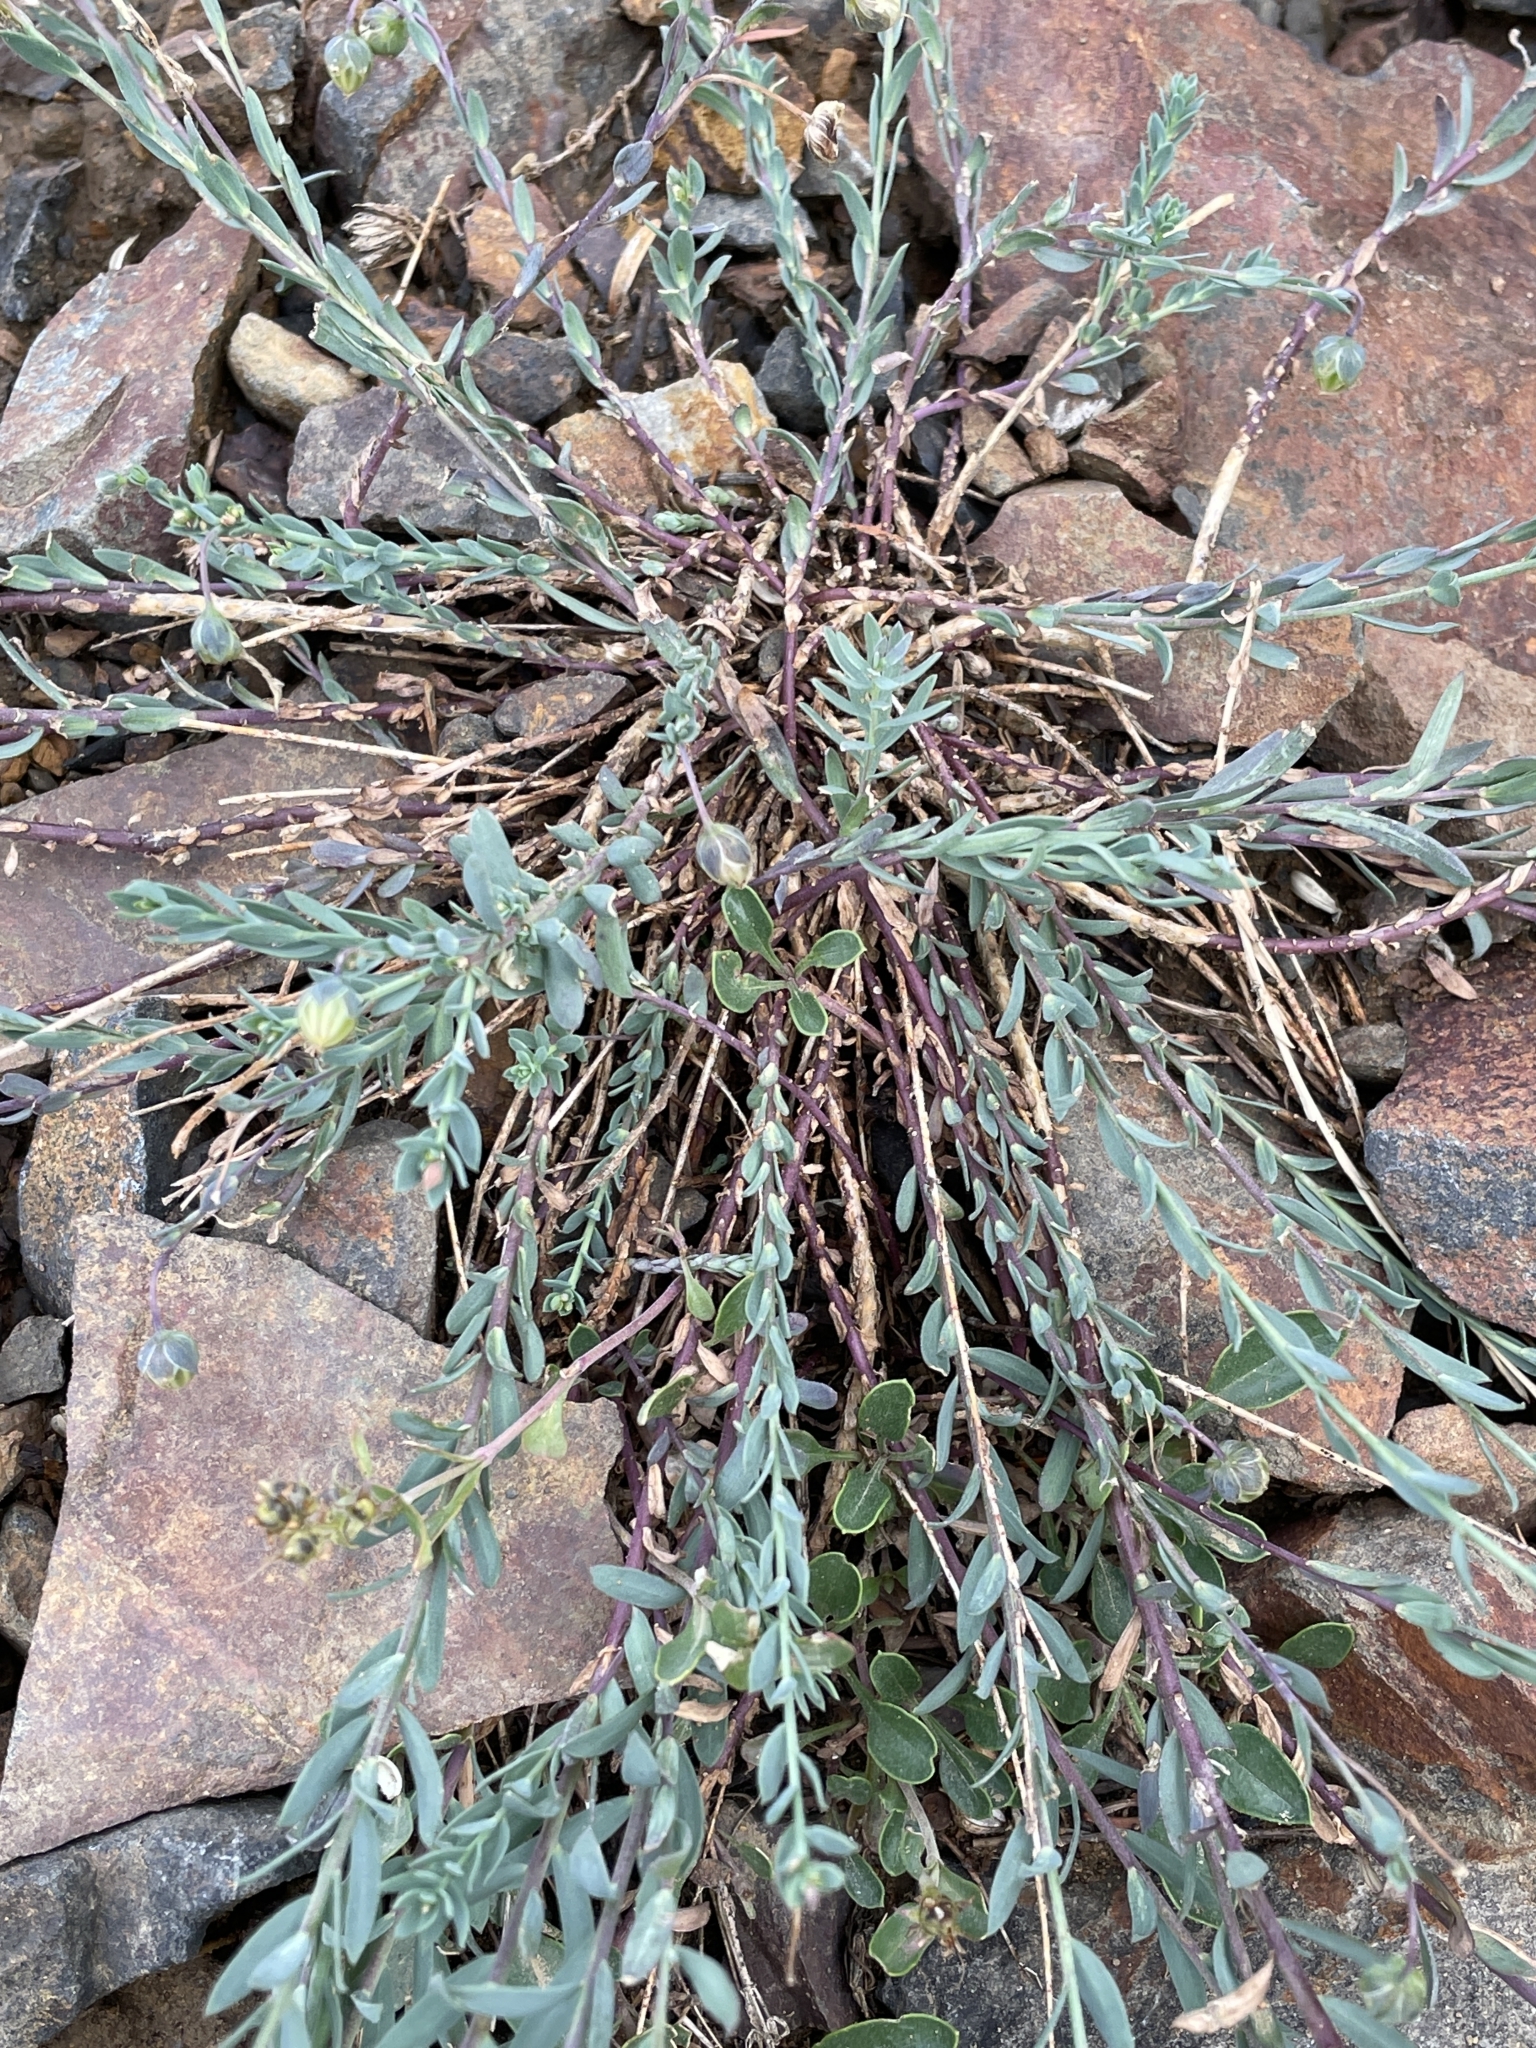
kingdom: Plantae
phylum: Tracheophyta
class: Magnoliopsida
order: Malpighiales
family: Linaceae
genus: Linum
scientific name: Linum lewisii
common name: Prairie flax
